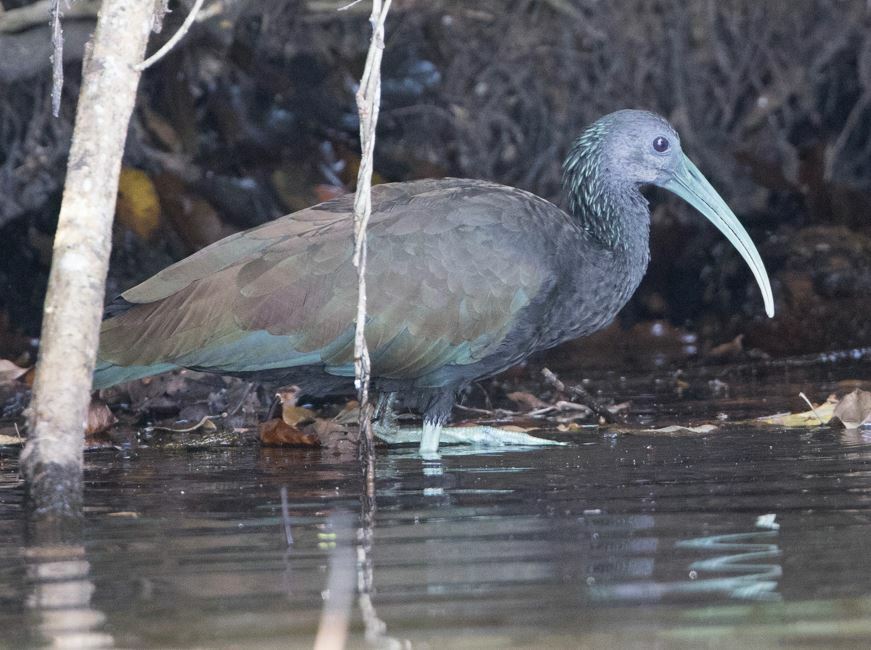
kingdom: Animalia
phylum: Chordata
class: Aves
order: Pelecaniformes
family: Threskiornithidae
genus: Mesembrinibis
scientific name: Mesembrinibis cayennensis
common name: Green ibis
